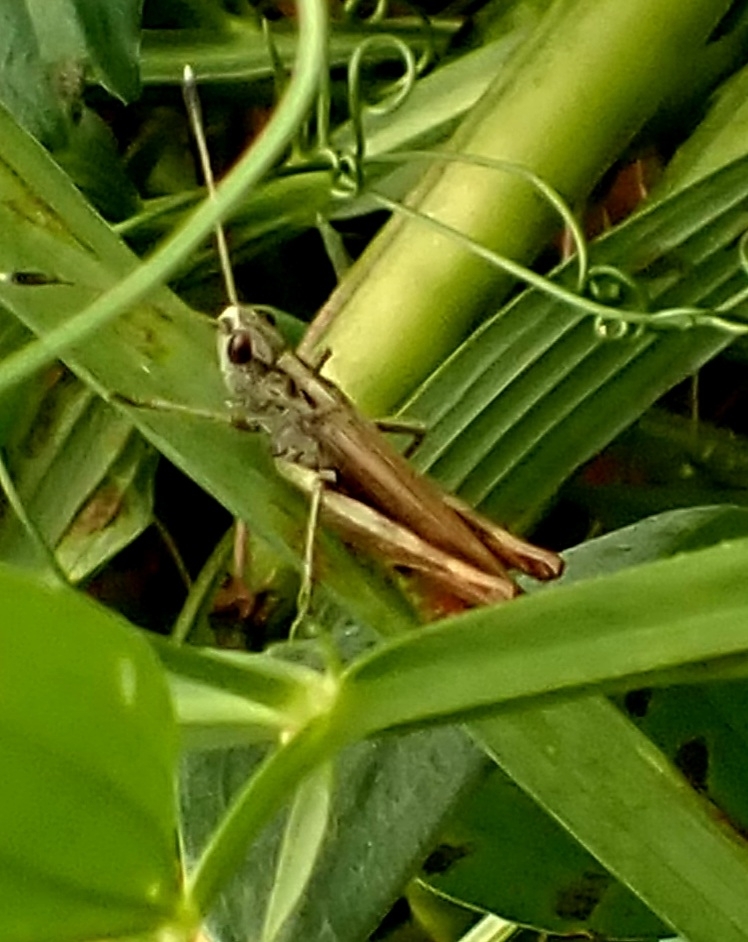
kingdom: Animalia
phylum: Arthropoda
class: Insecta
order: Orthoptera
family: Acrididae
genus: Gomphocerippus
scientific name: Gomphocerippus rufus
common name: Rufous grasshopper
